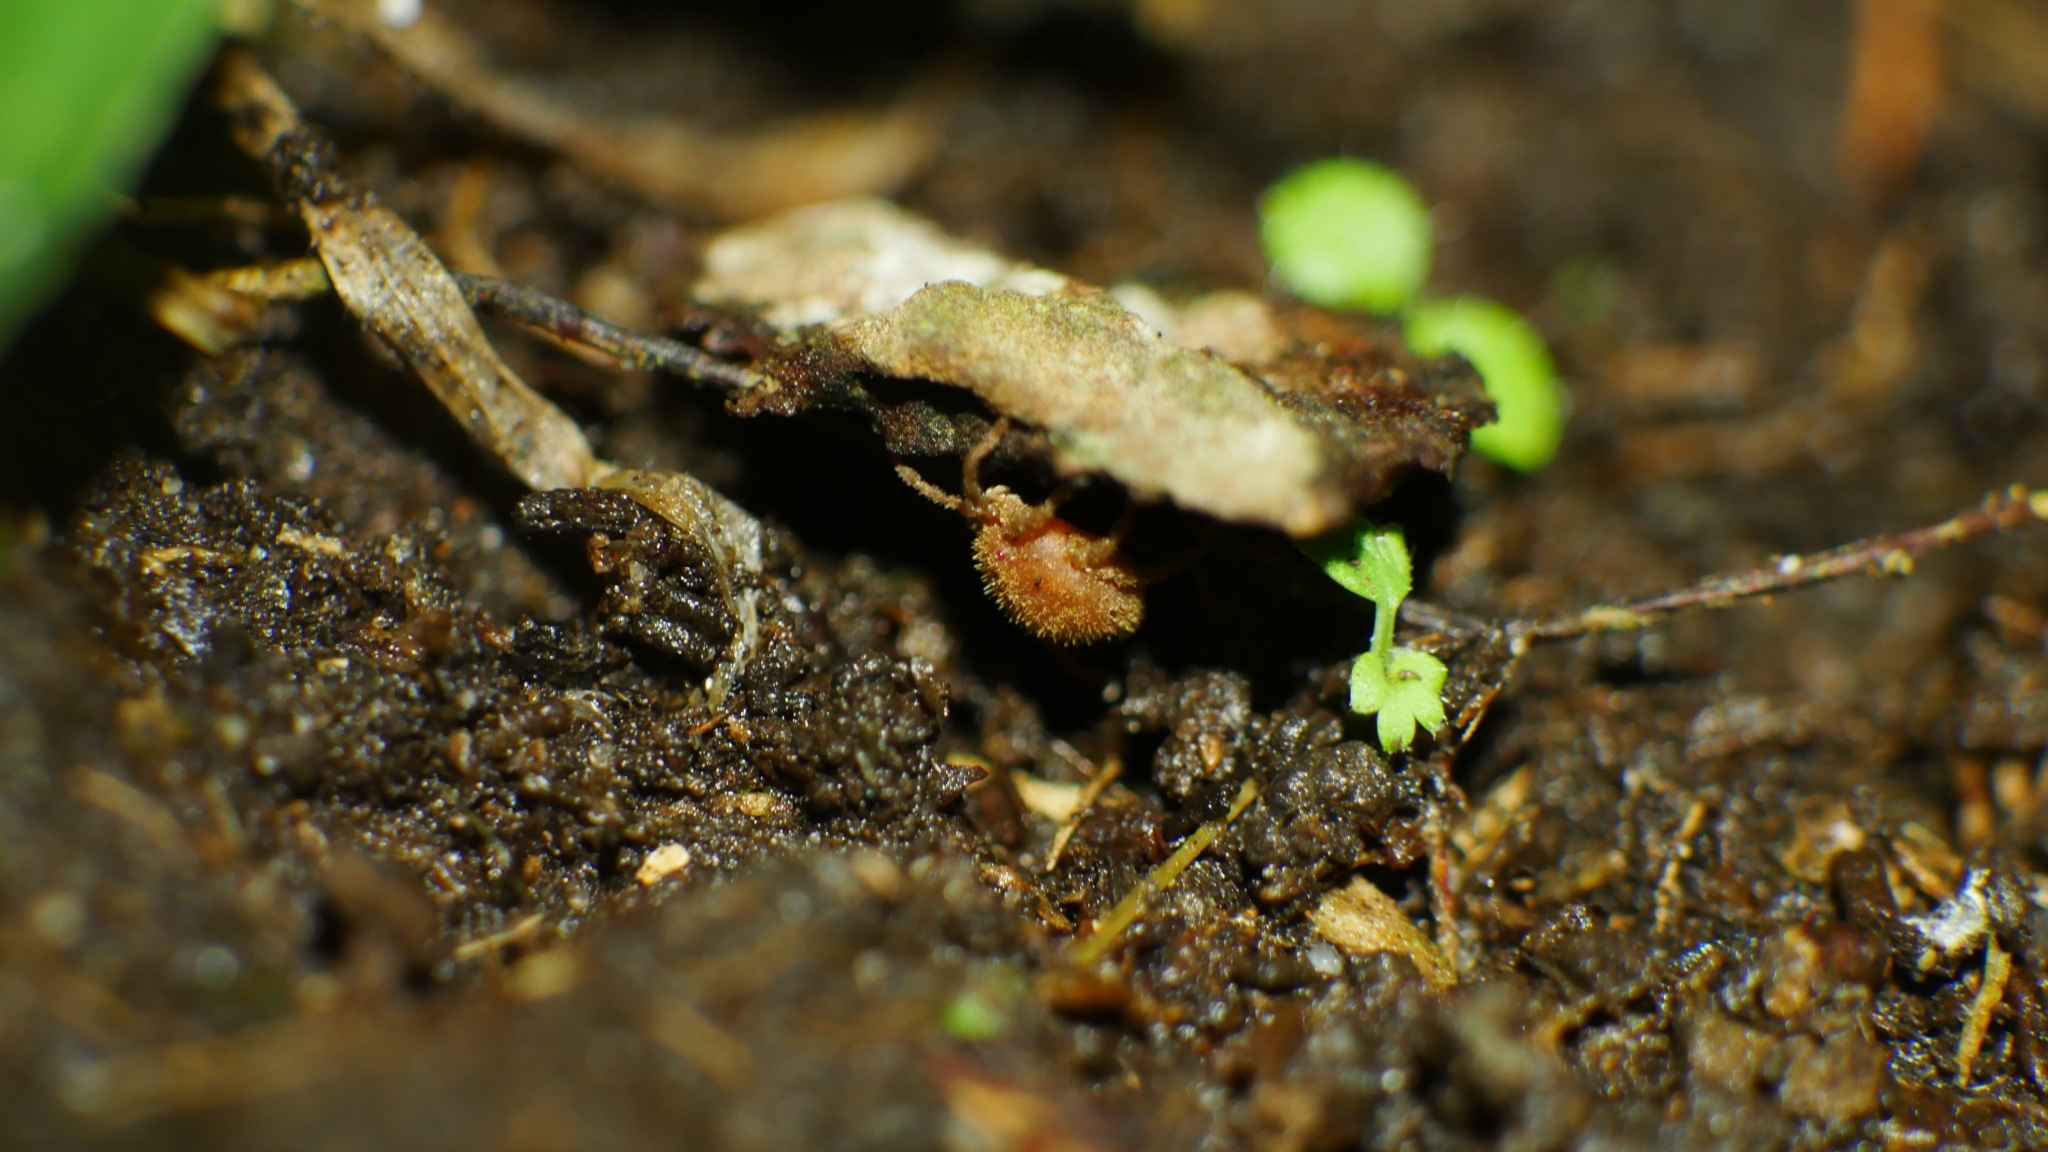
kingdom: Animalia
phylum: Arthropoda
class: Arachnida
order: Trombidiformes
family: Erythraeidae
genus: Caeculisoma
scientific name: Caeculisoma
